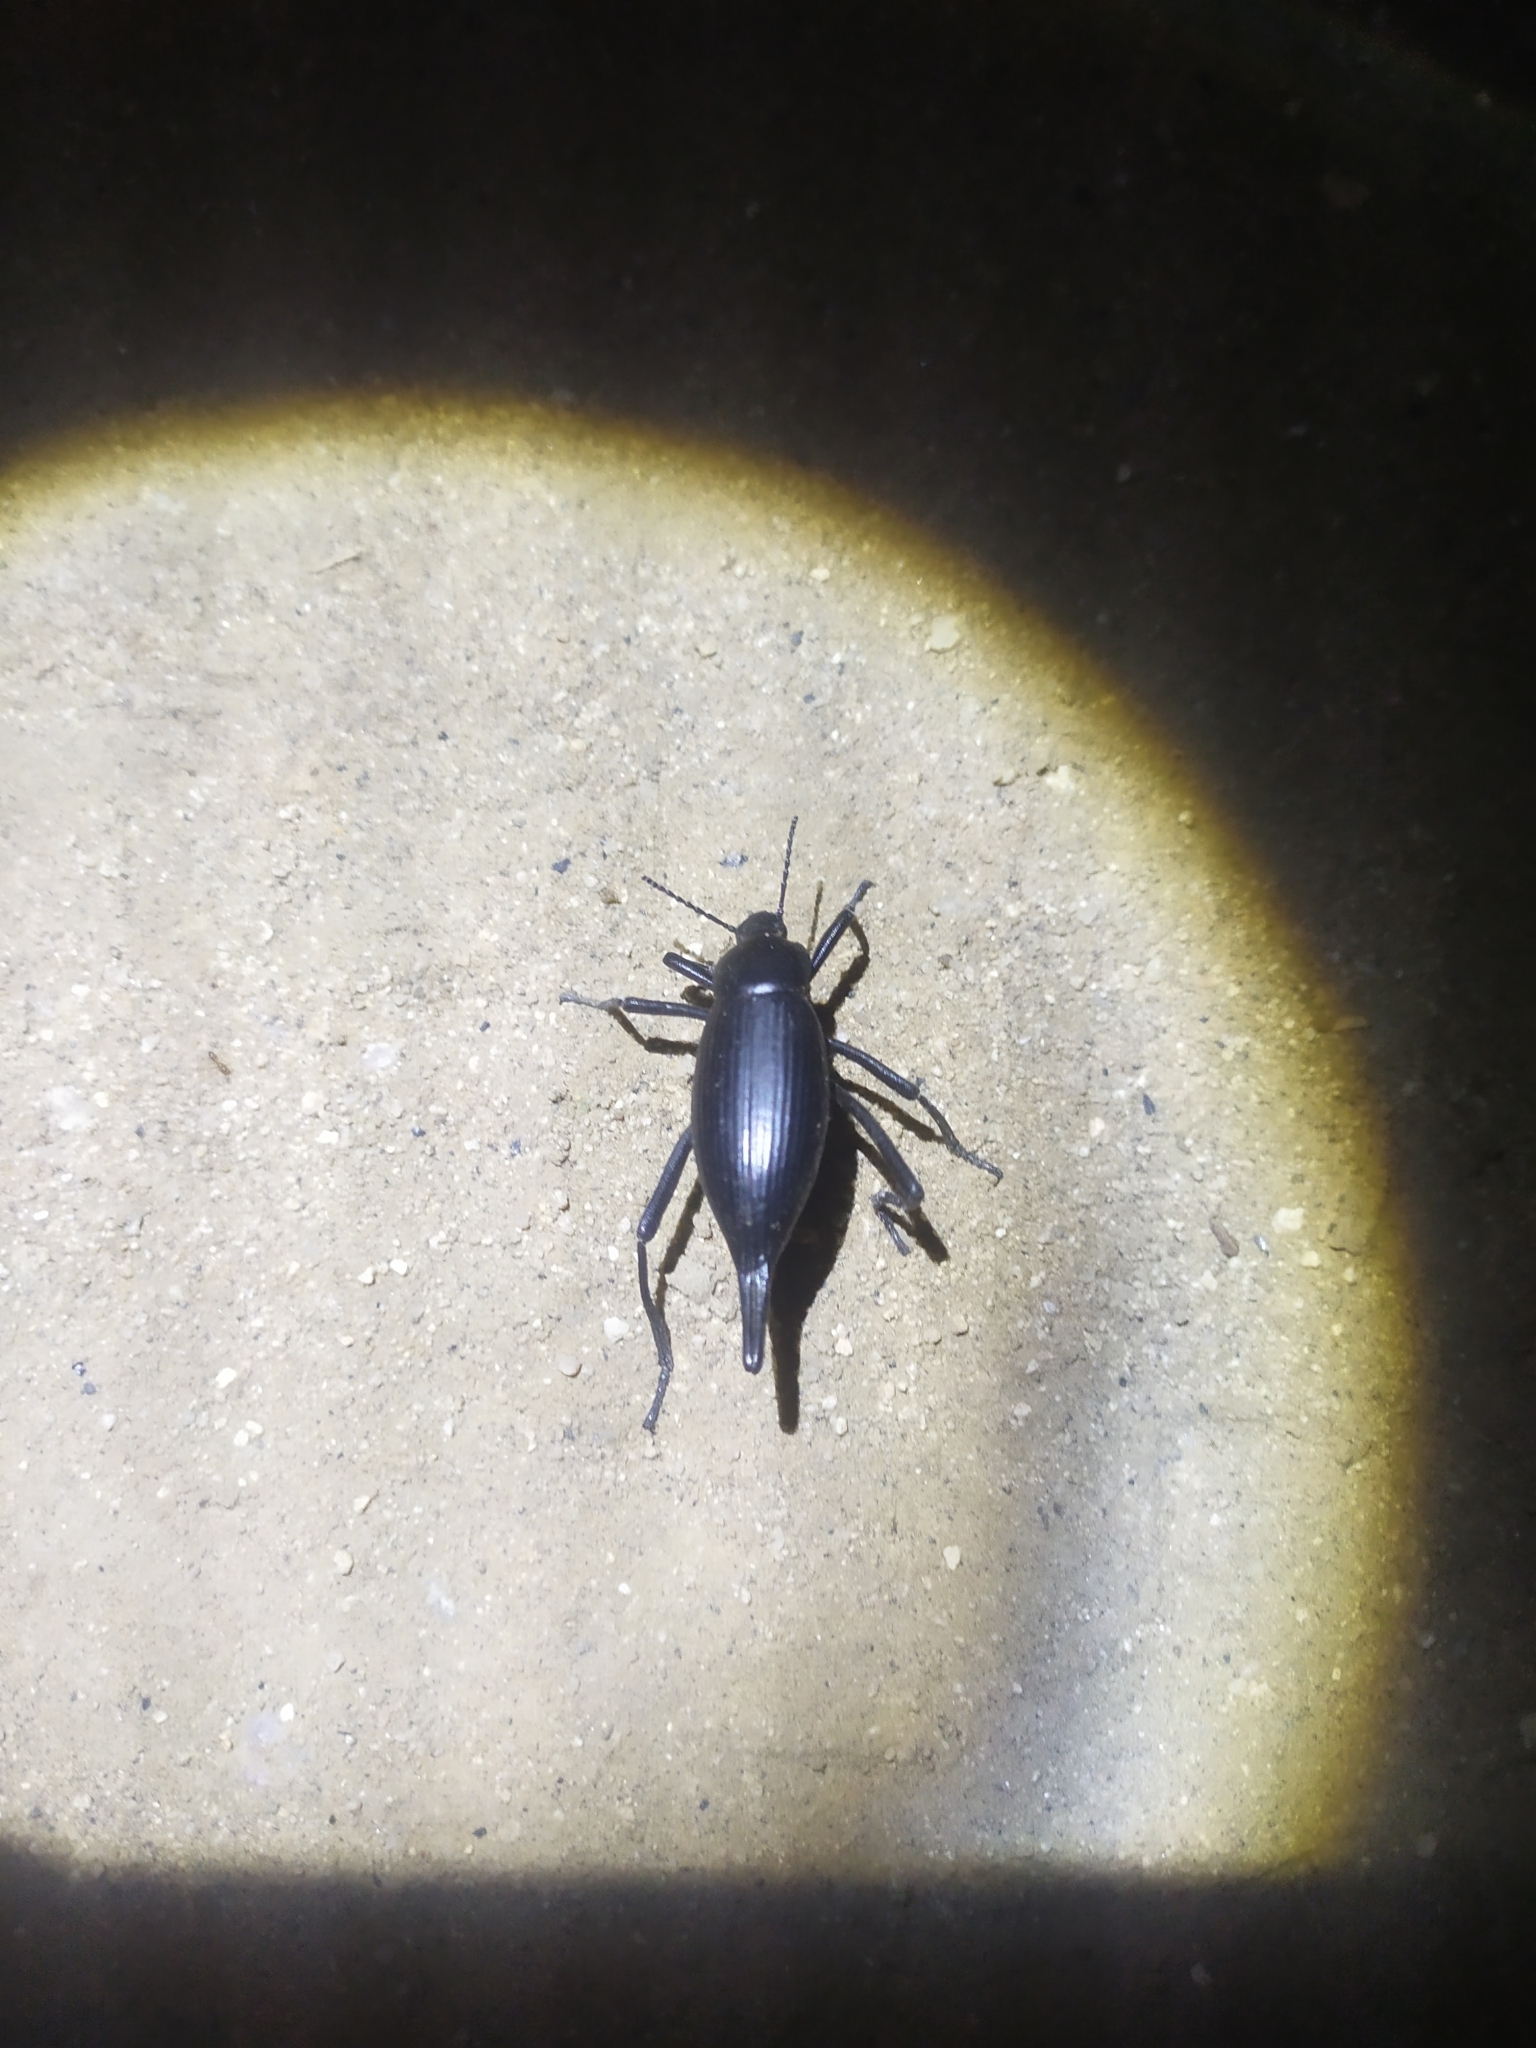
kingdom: Animalia
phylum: Arthropoda
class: Insecta
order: Coleoptera
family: Tenebrionidae
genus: Eleodes
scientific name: Eleodes eschscholtzii
